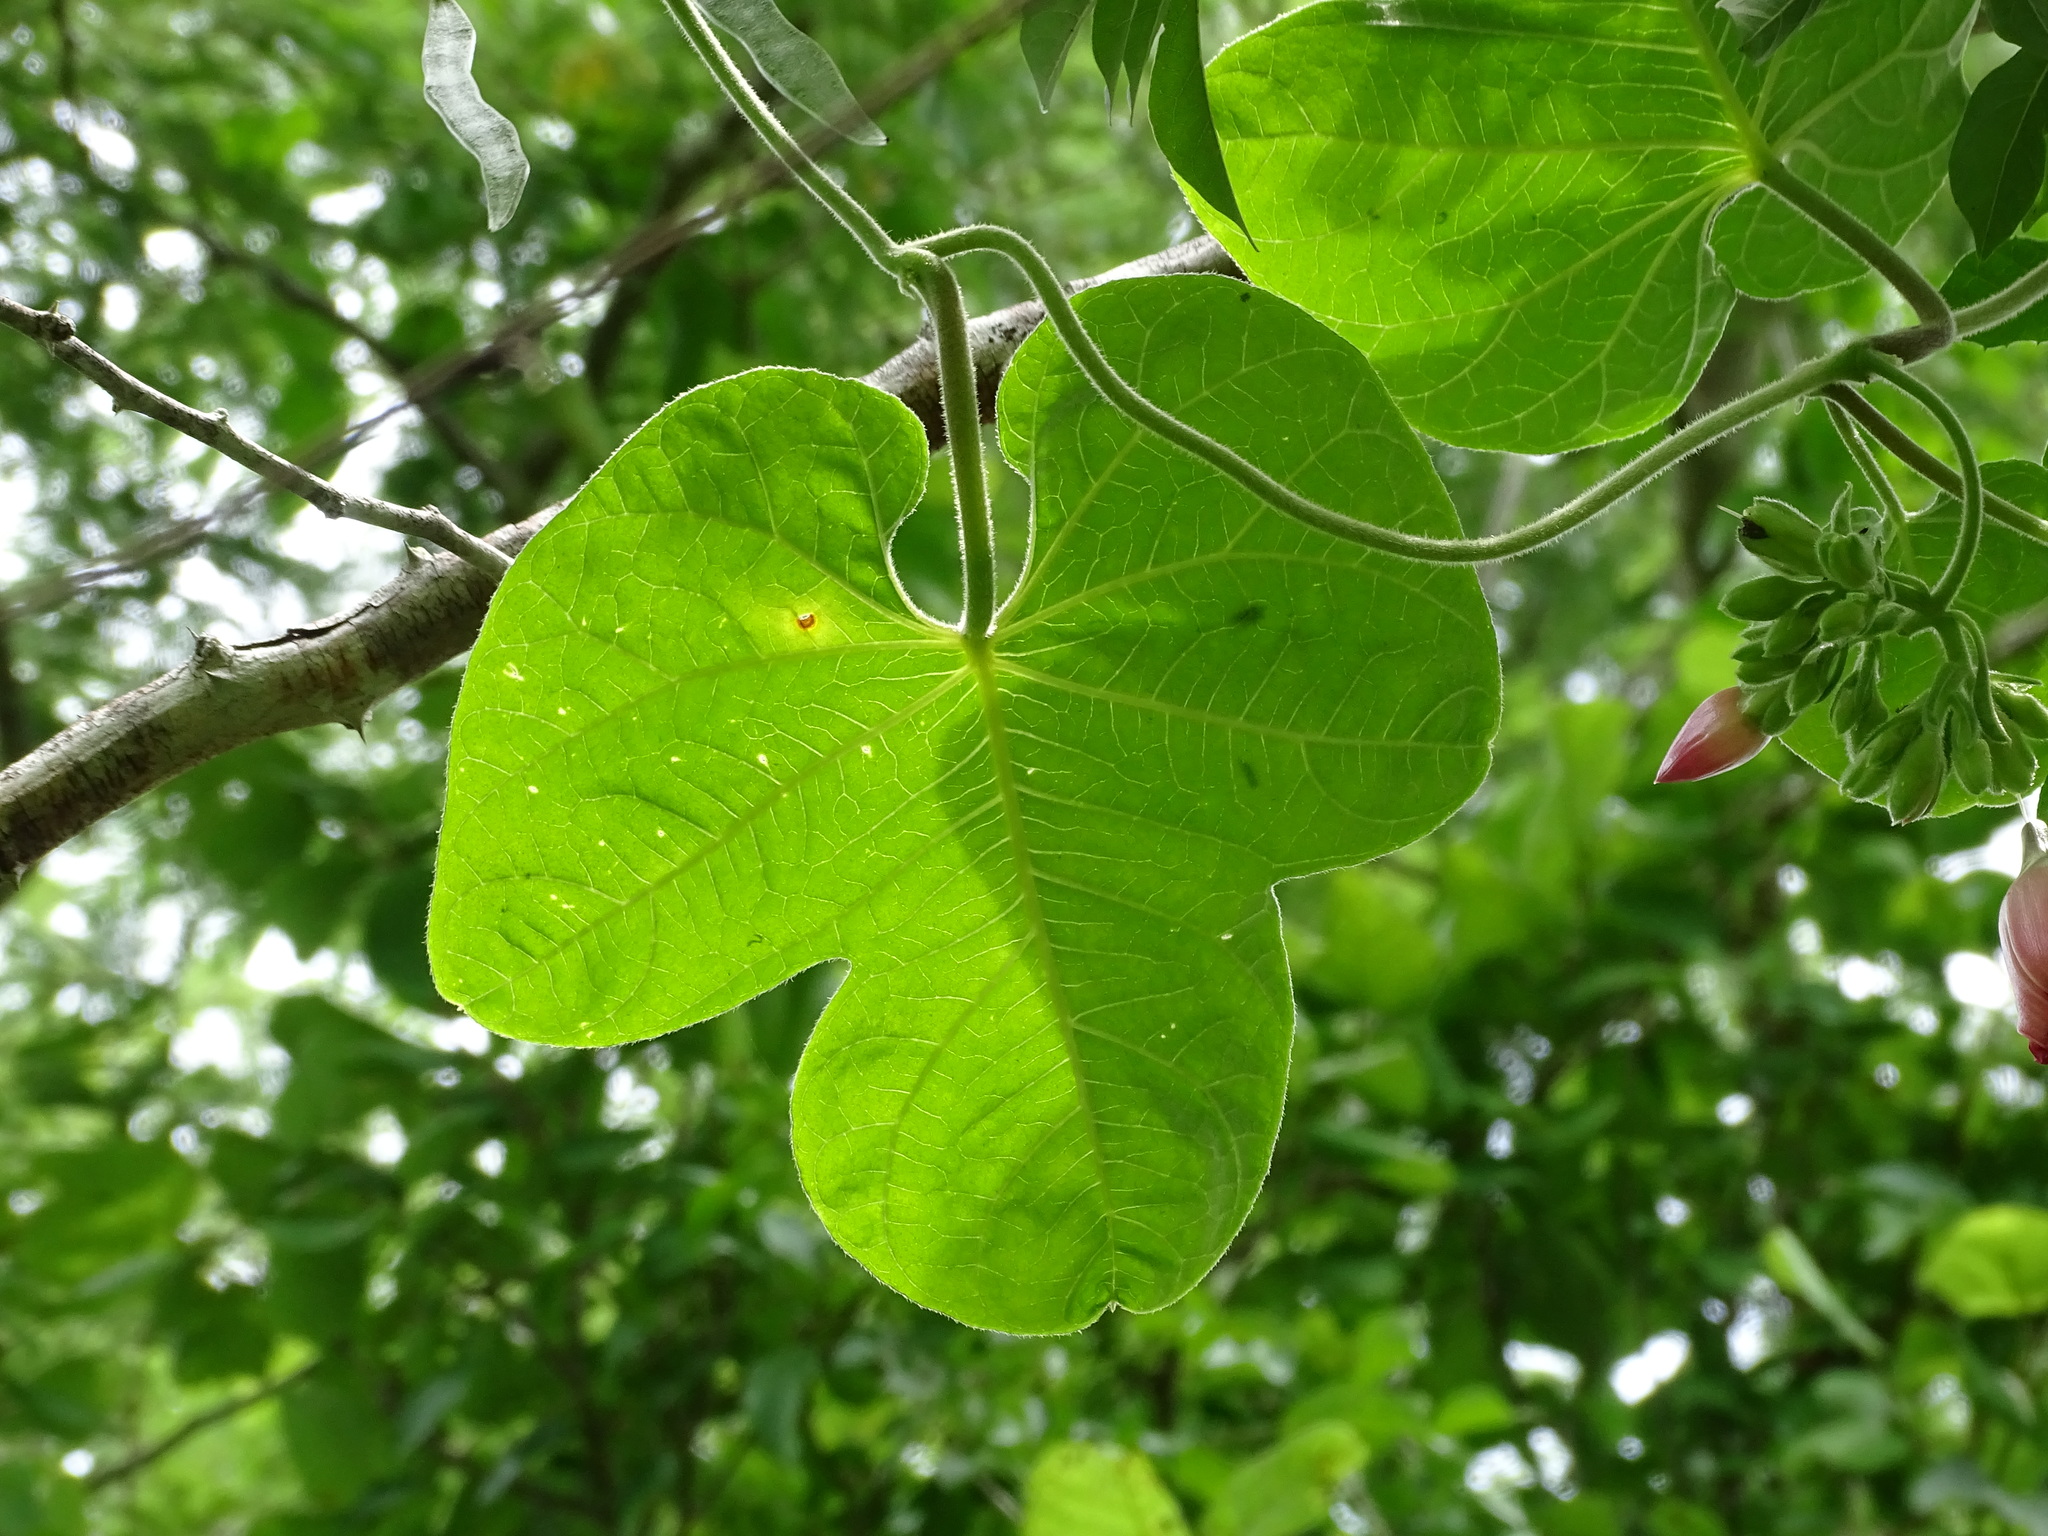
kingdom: Plantae
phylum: Tracheophyta
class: Magnoliopsida
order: Solanales
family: Convolvulaceae
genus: Ipomoea
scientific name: Ipomoea peteri
